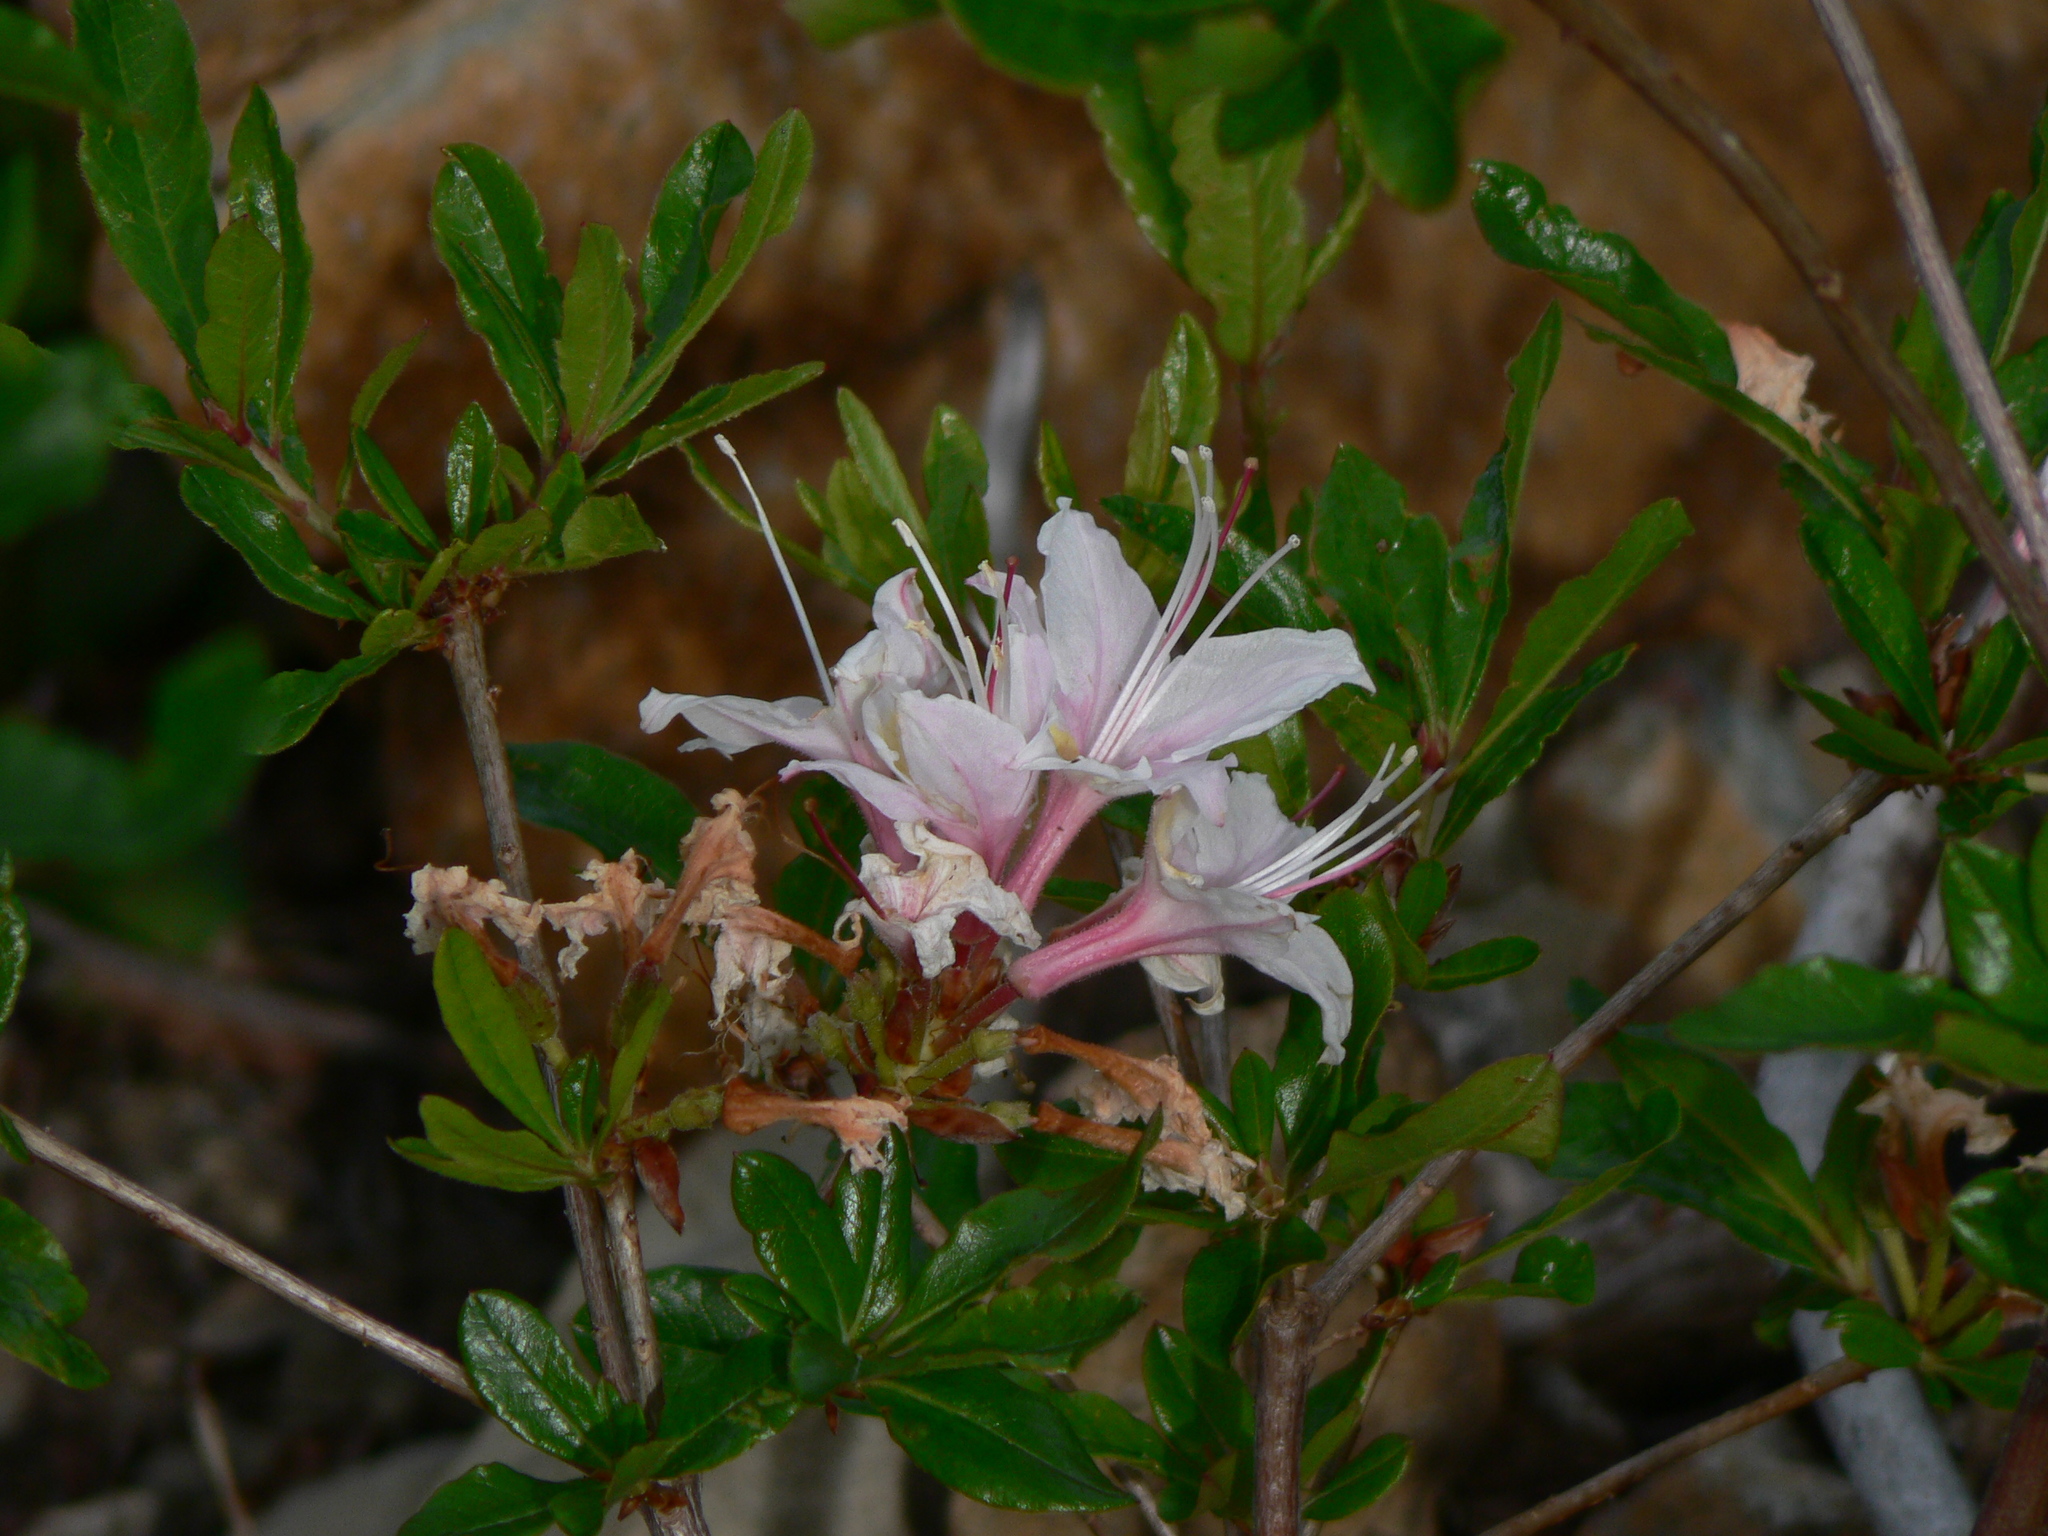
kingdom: Plantae
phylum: Tracheophyta
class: Magnoliopsida
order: Ericales
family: Ericaceae
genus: Rhododendron
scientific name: Rhododendron occidentale
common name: Western azalea
